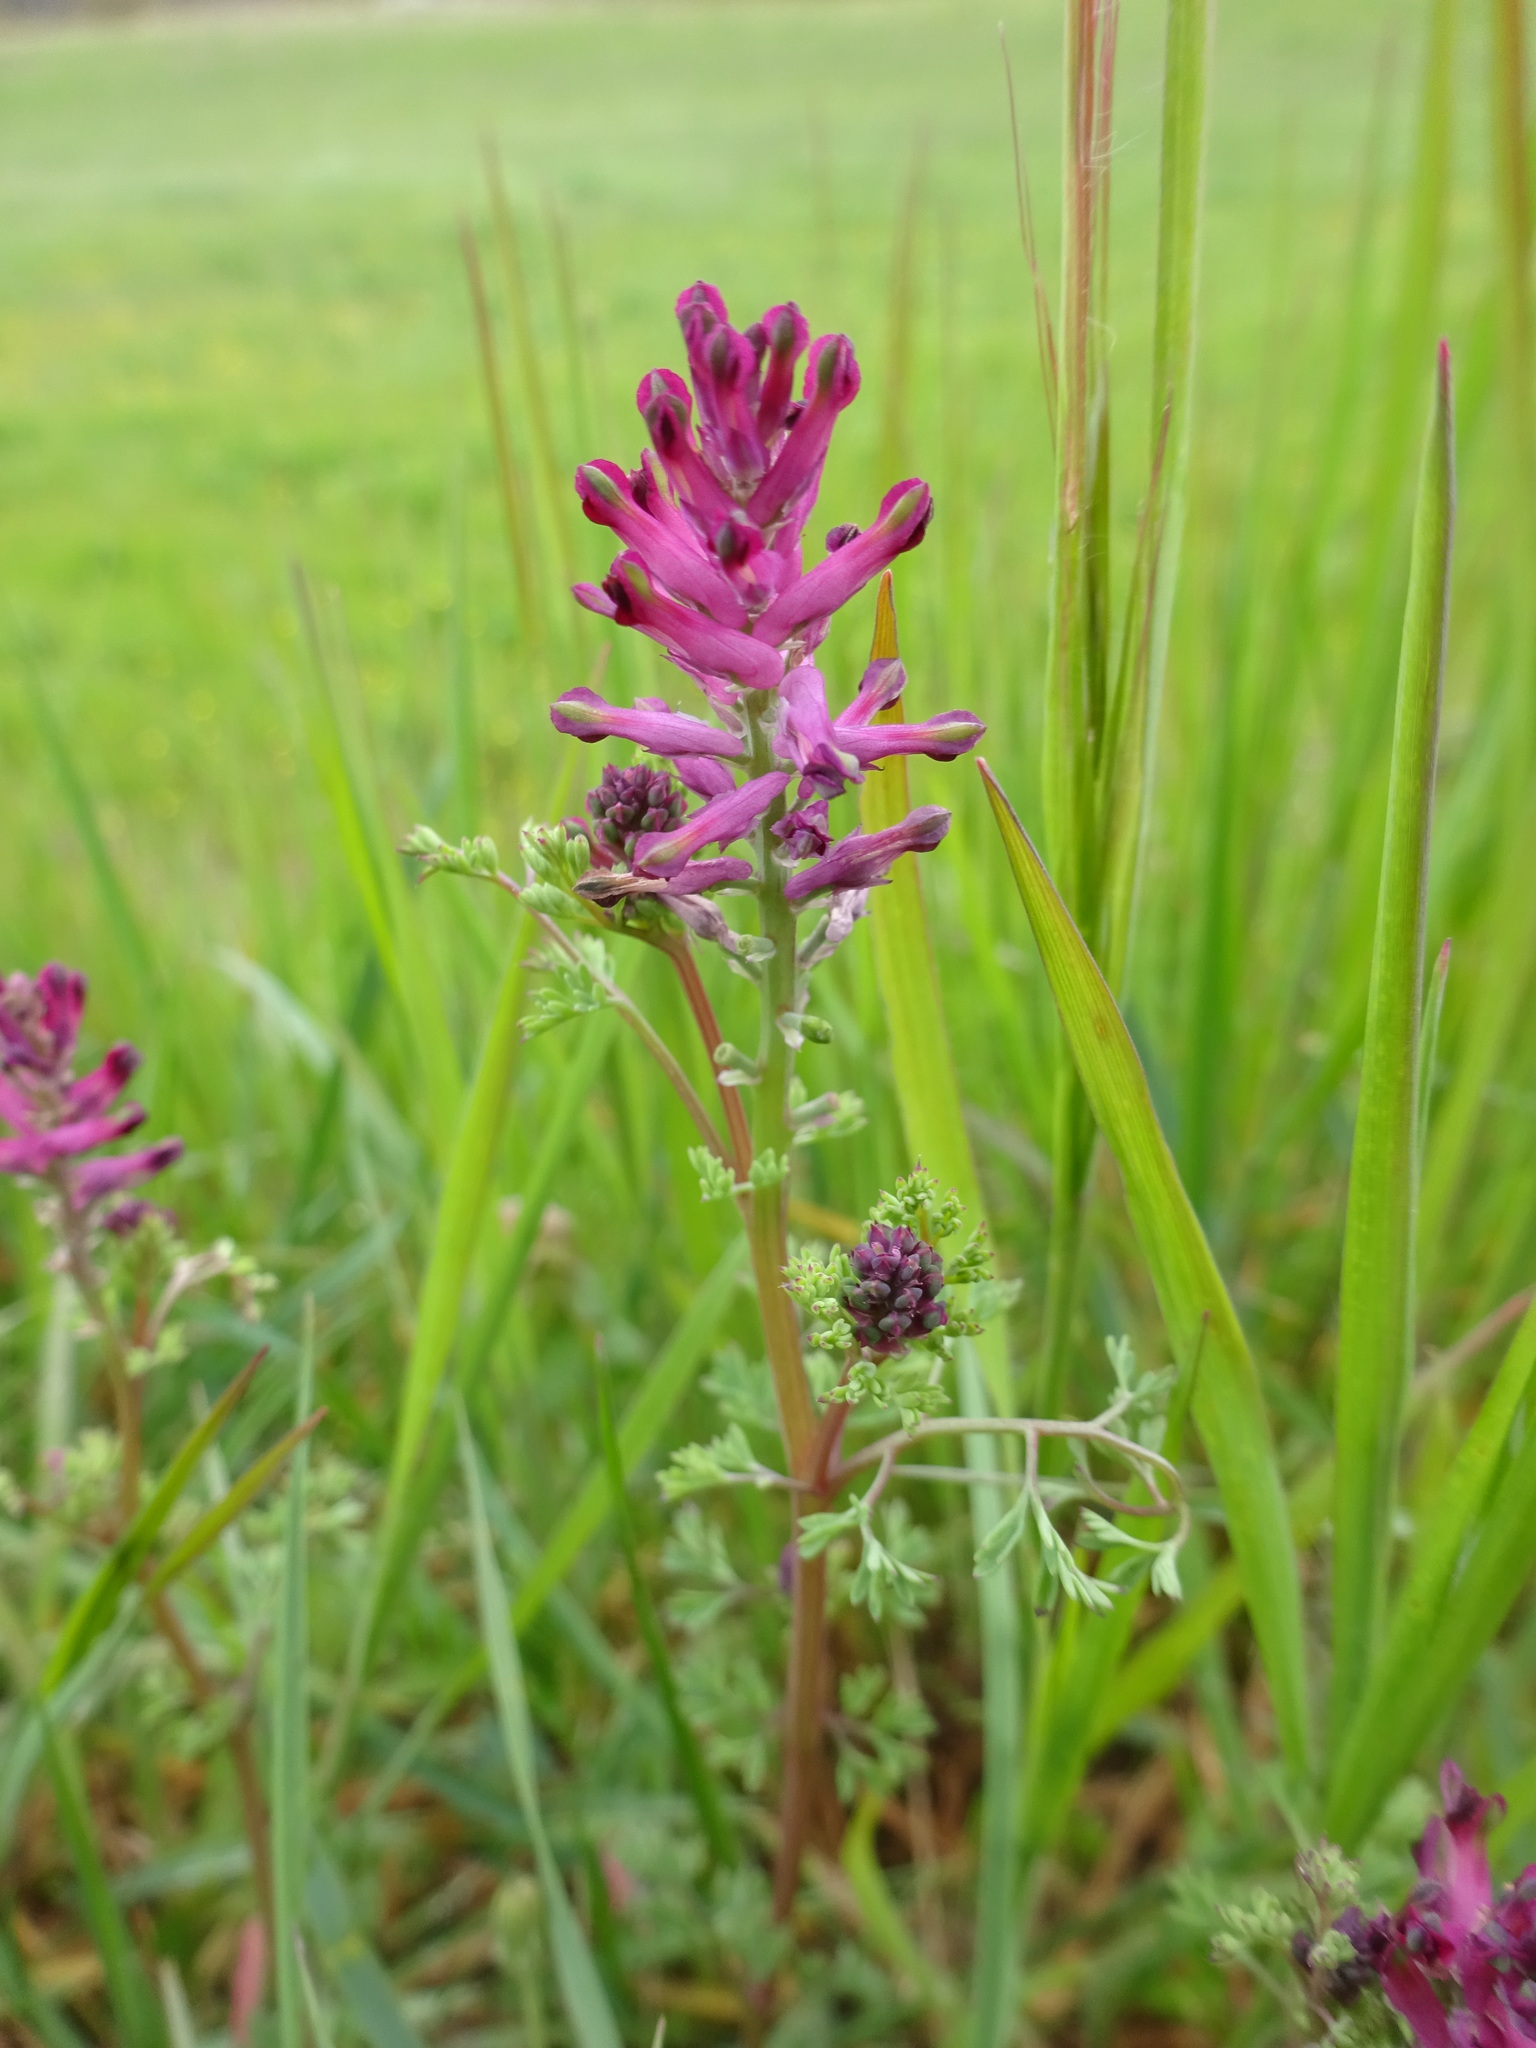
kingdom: Plantae
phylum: Tracheophyta
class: Magnoliopsida
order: Ranunculales
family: Papaveraceae
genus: Fumaria
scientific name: Fumaria officinalis
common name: Common fumitory
